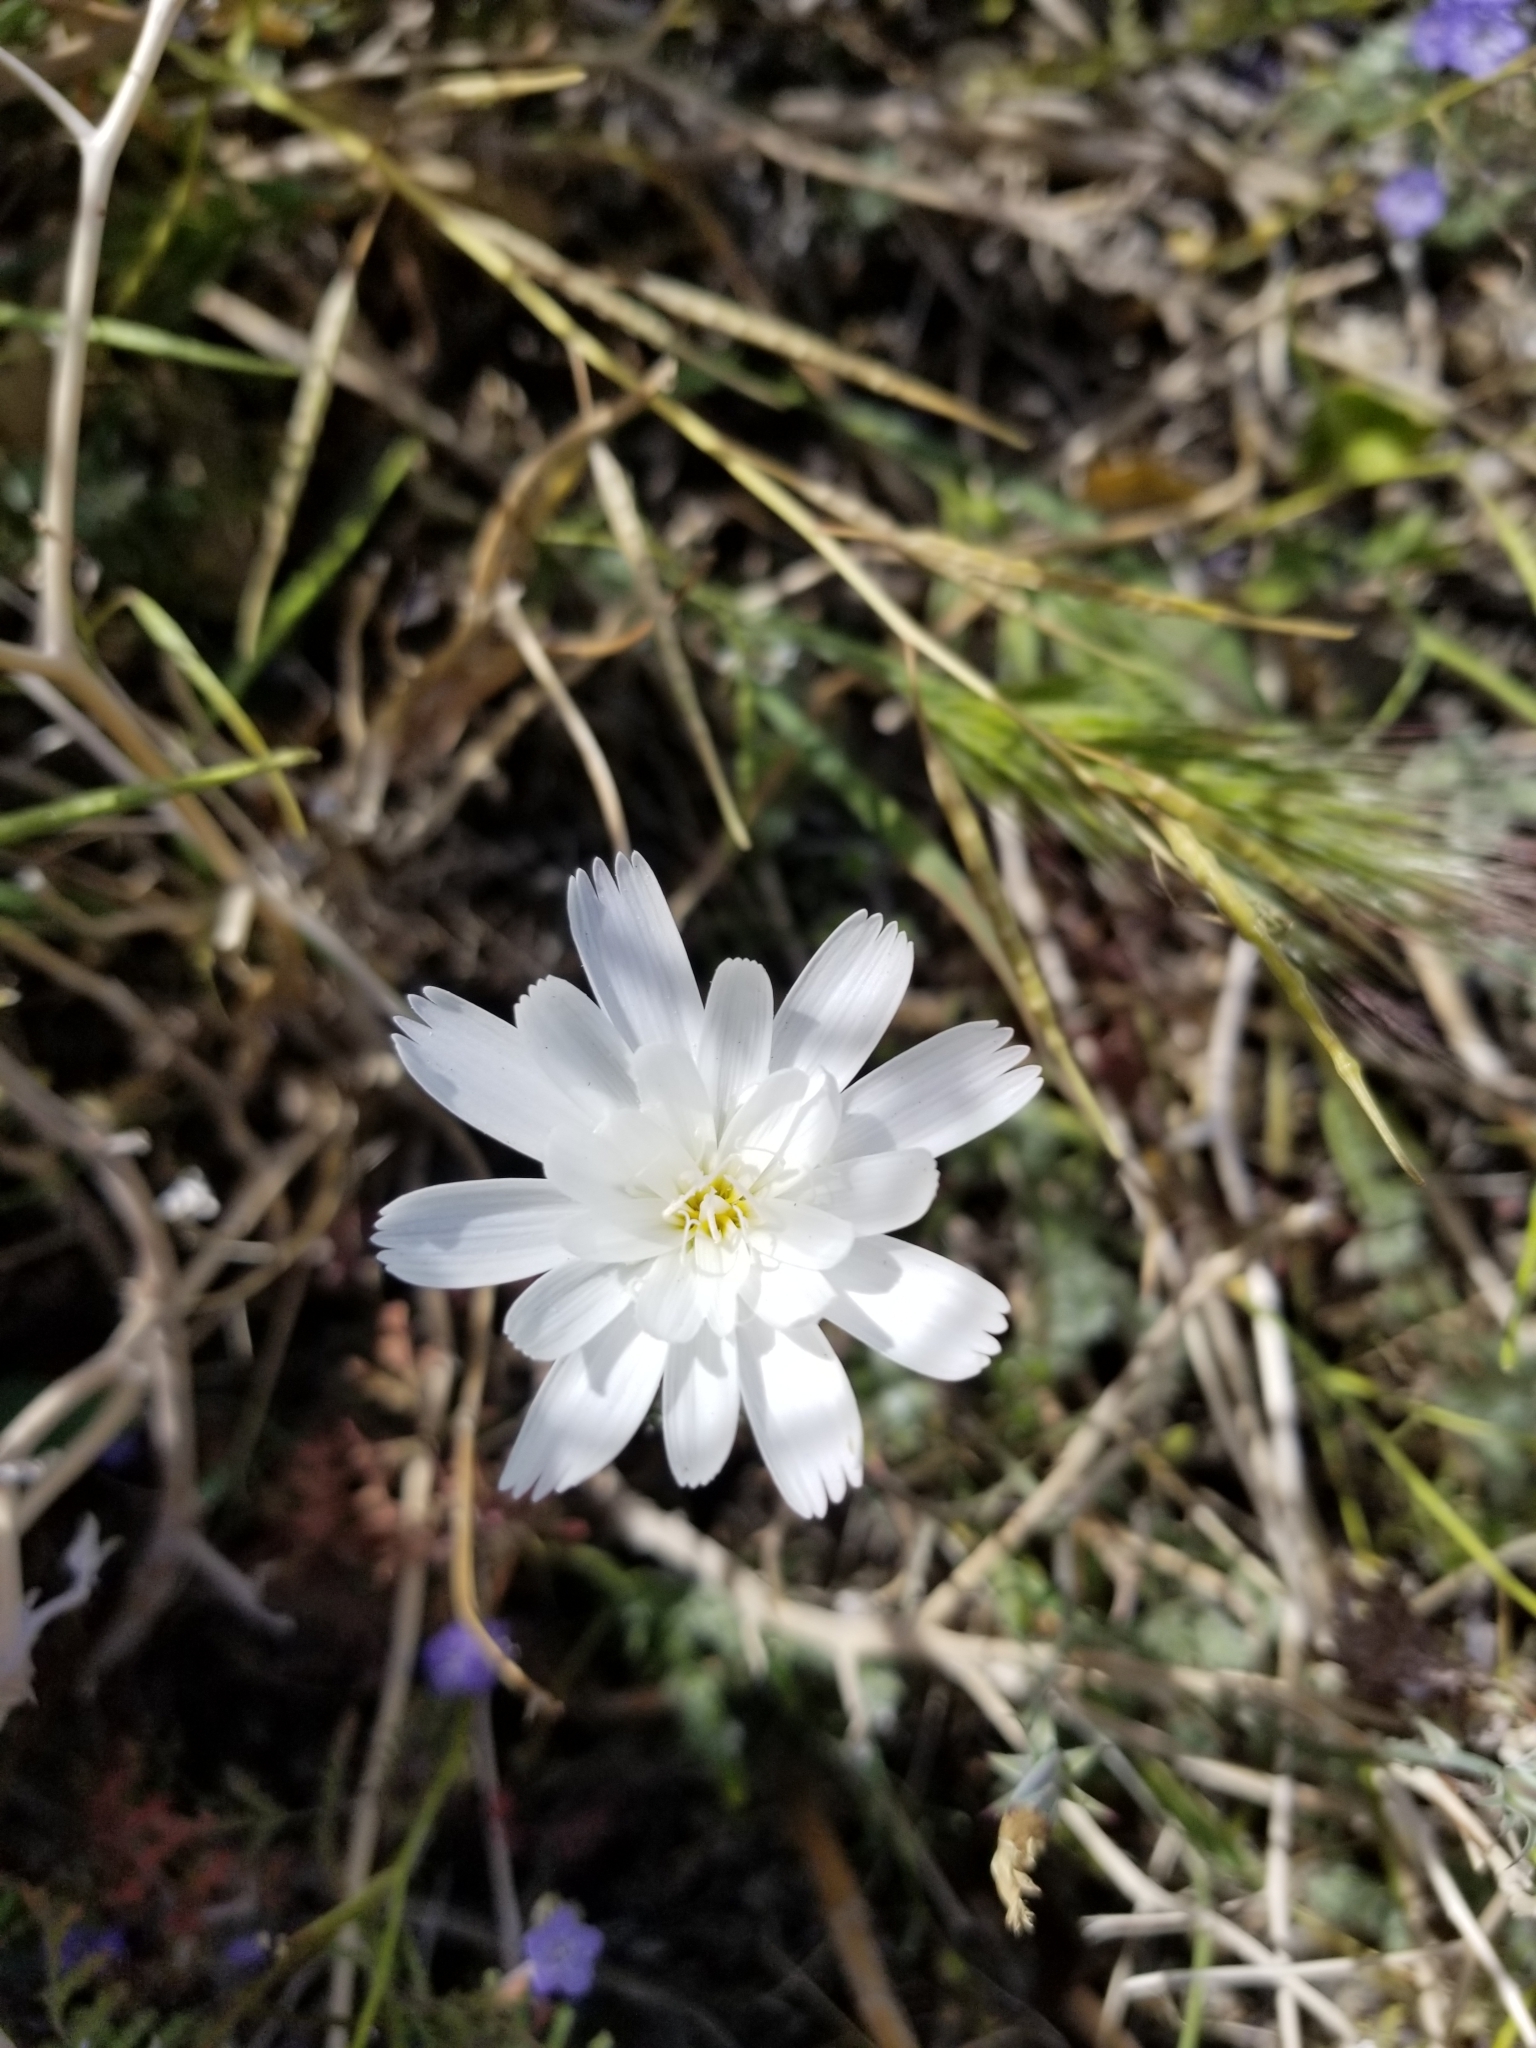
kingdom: Plantae
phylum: Tracheophyta
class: Magnoliopsida
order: Asterales
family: Asteraceae
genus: Rafinesquia
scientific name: Rafinesquia neomexicana
